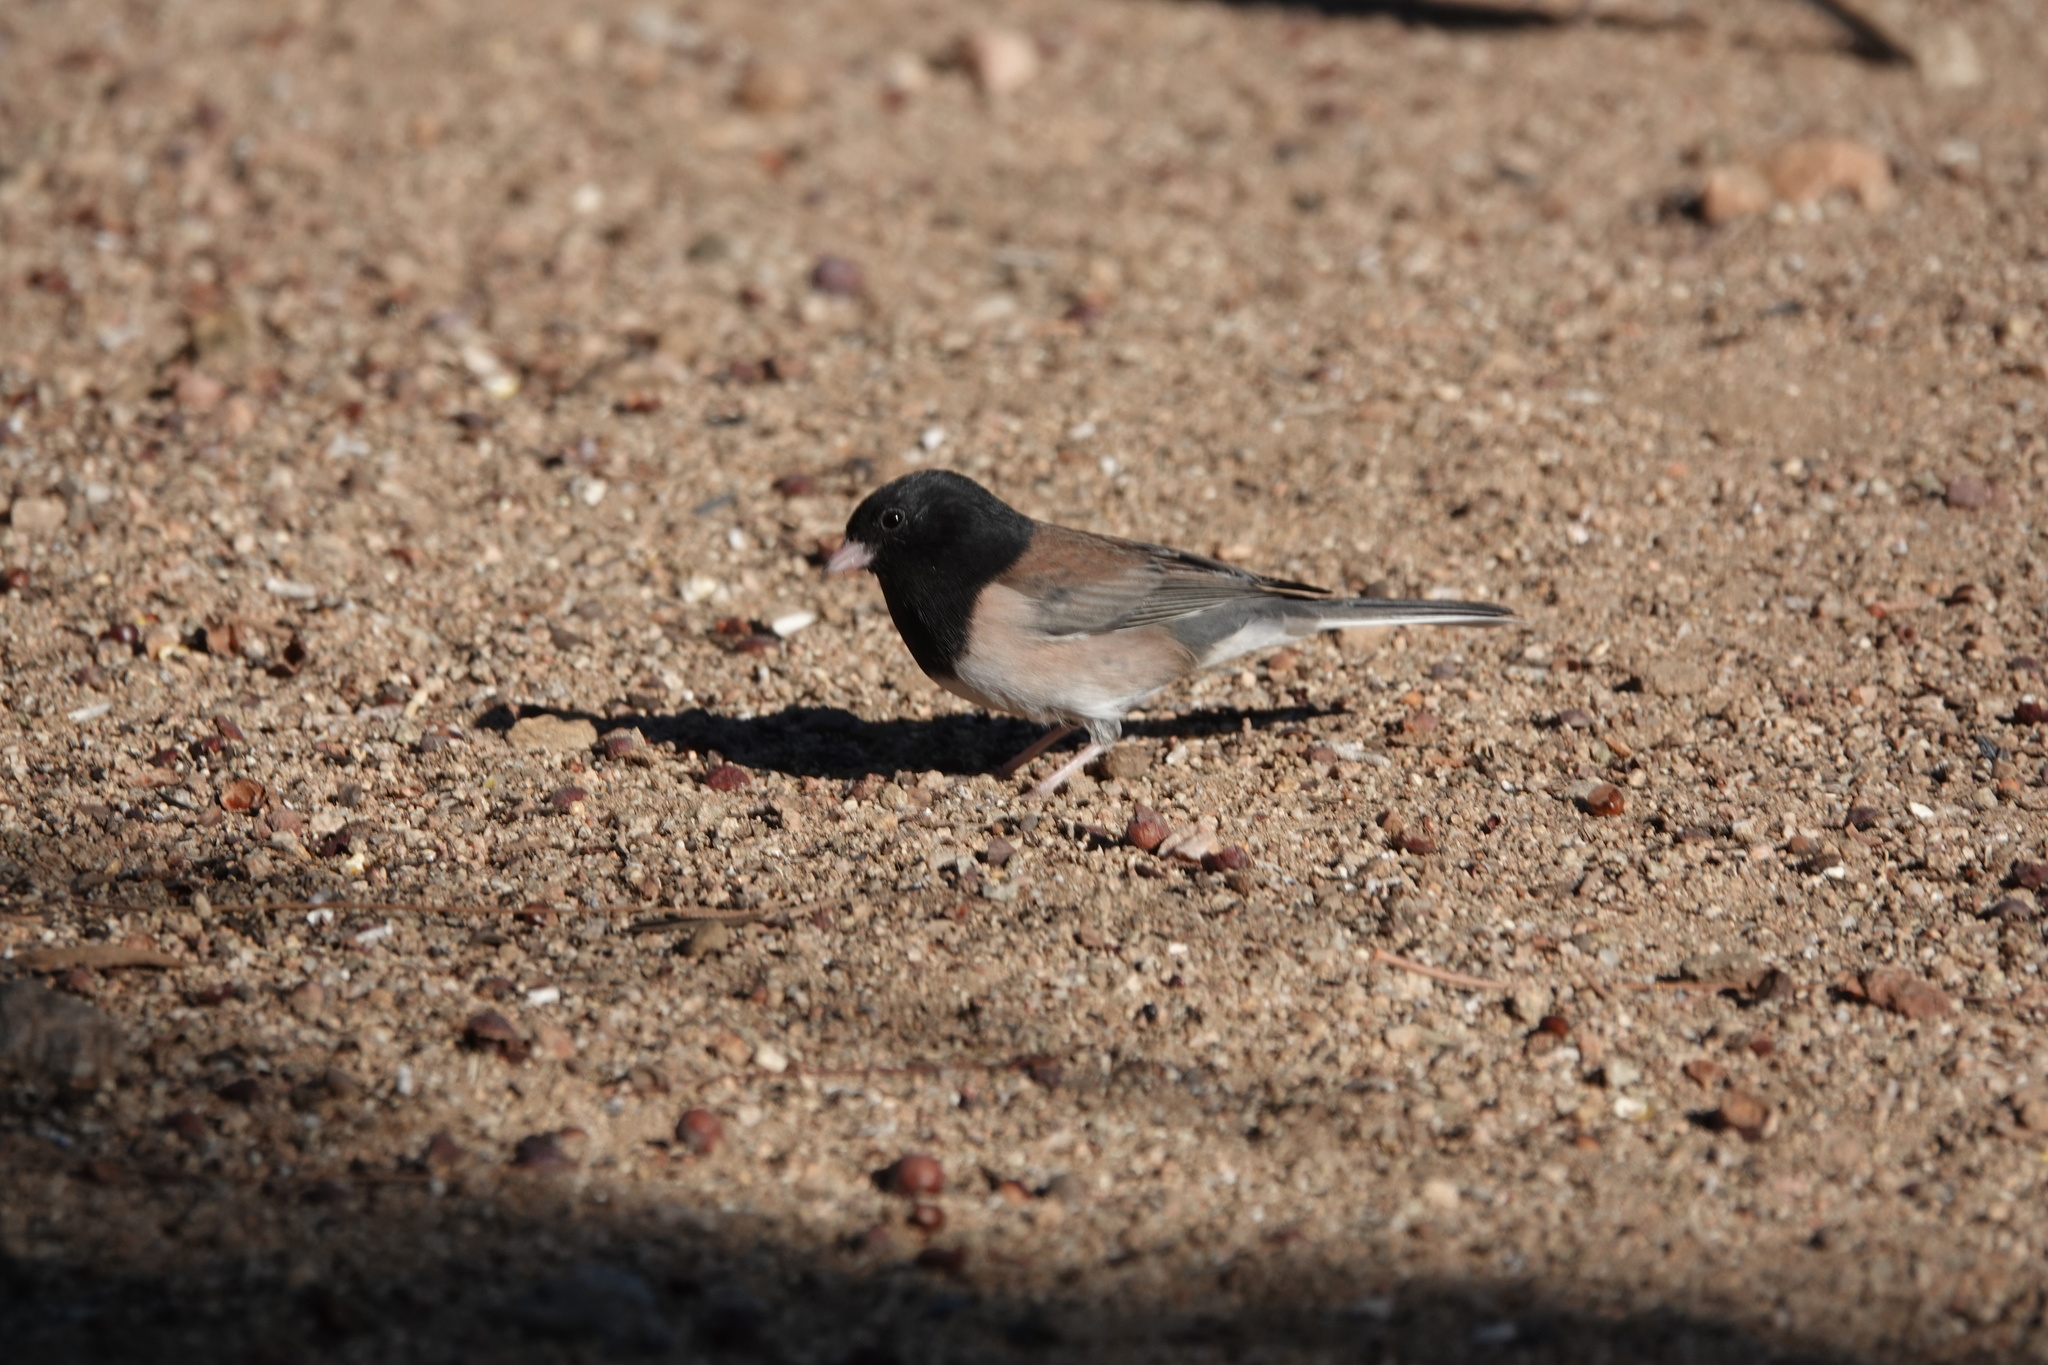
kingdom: Animalia
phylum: Chordata
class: Aves
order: Passeriformes
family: Passerellidae
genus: Junco
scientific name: Junco hyemalis
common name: Dark-eyed junco
